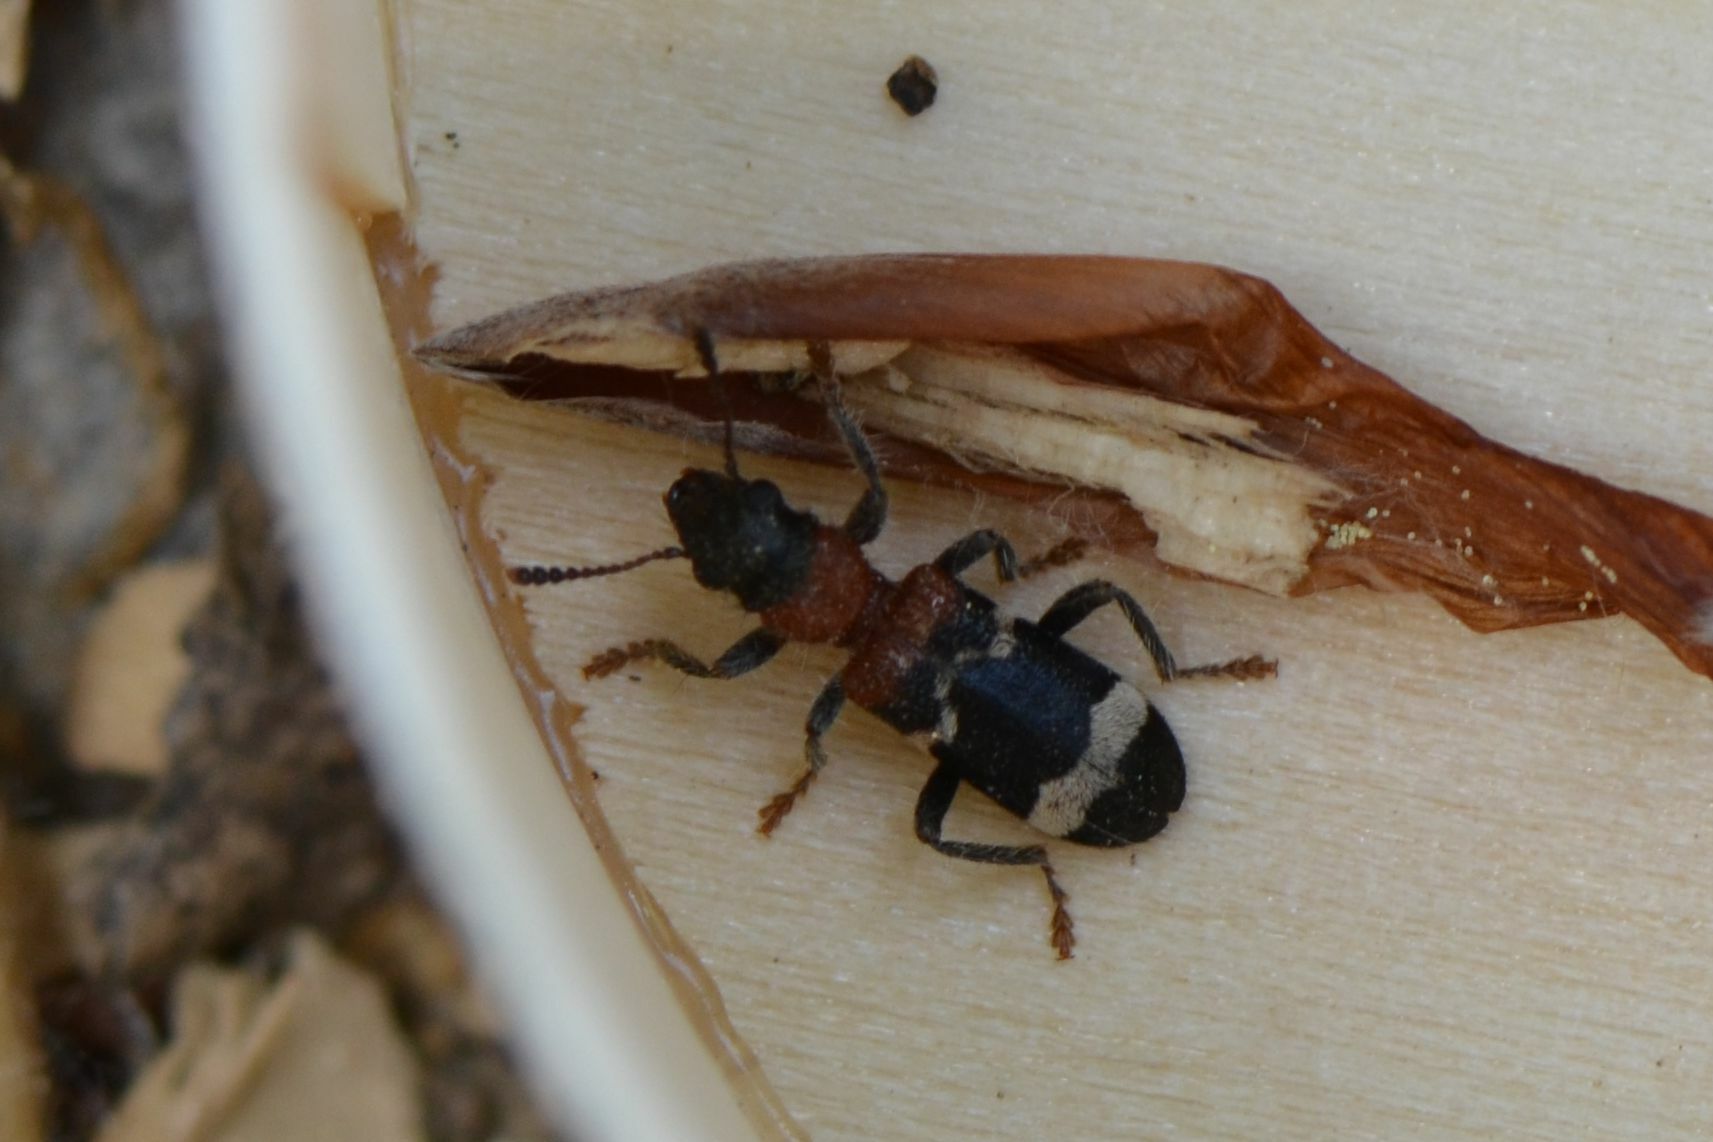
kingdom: Animalia
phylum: Arthropoda
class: Insecta
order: Coleoptera
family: Cleridae
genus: Thanasimus
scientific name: Thanasimus formicarius
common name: Ant beetle
